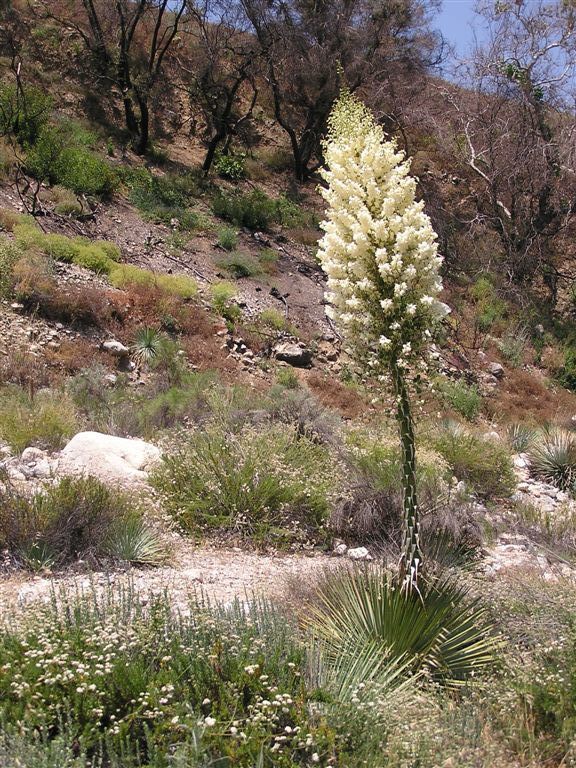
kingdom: Plantae
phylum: Tracheophyta
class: Liliopsida
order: Asparagales
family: Asparagaceae
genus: Hesperoyucca
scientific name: Hesperoyucca whipplei
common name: Our lord's-candle
